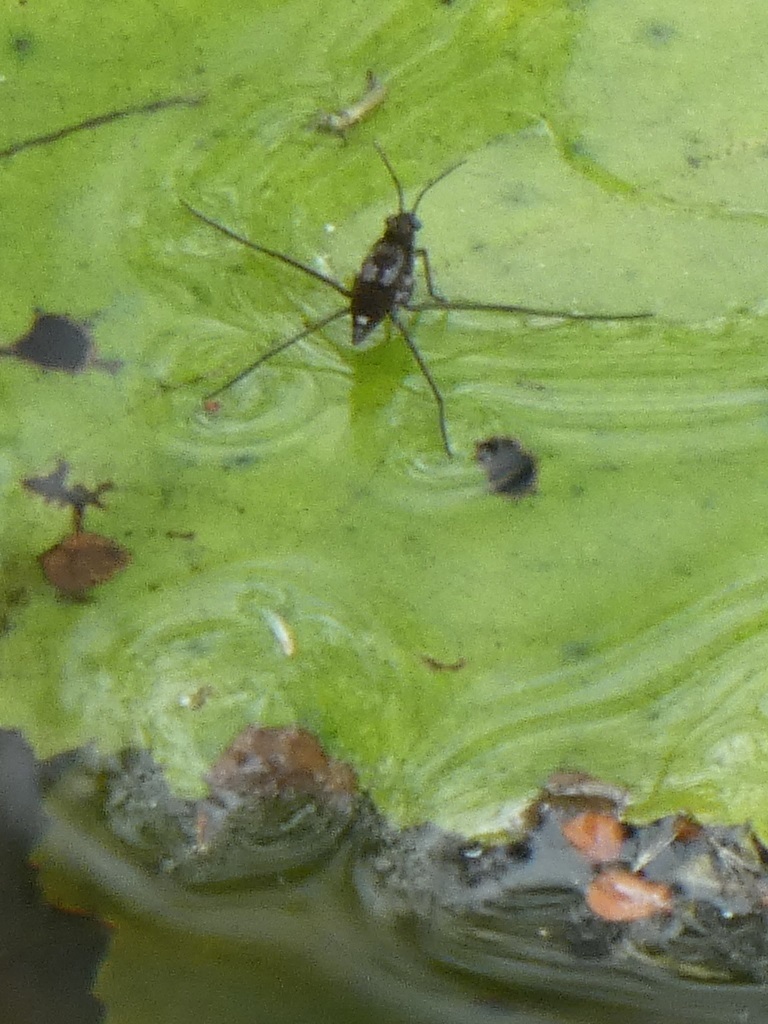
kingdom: Animalia
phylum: Arthropoda
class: Insecta
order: Hemiptera
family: Gerridae
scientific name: Gerridae
